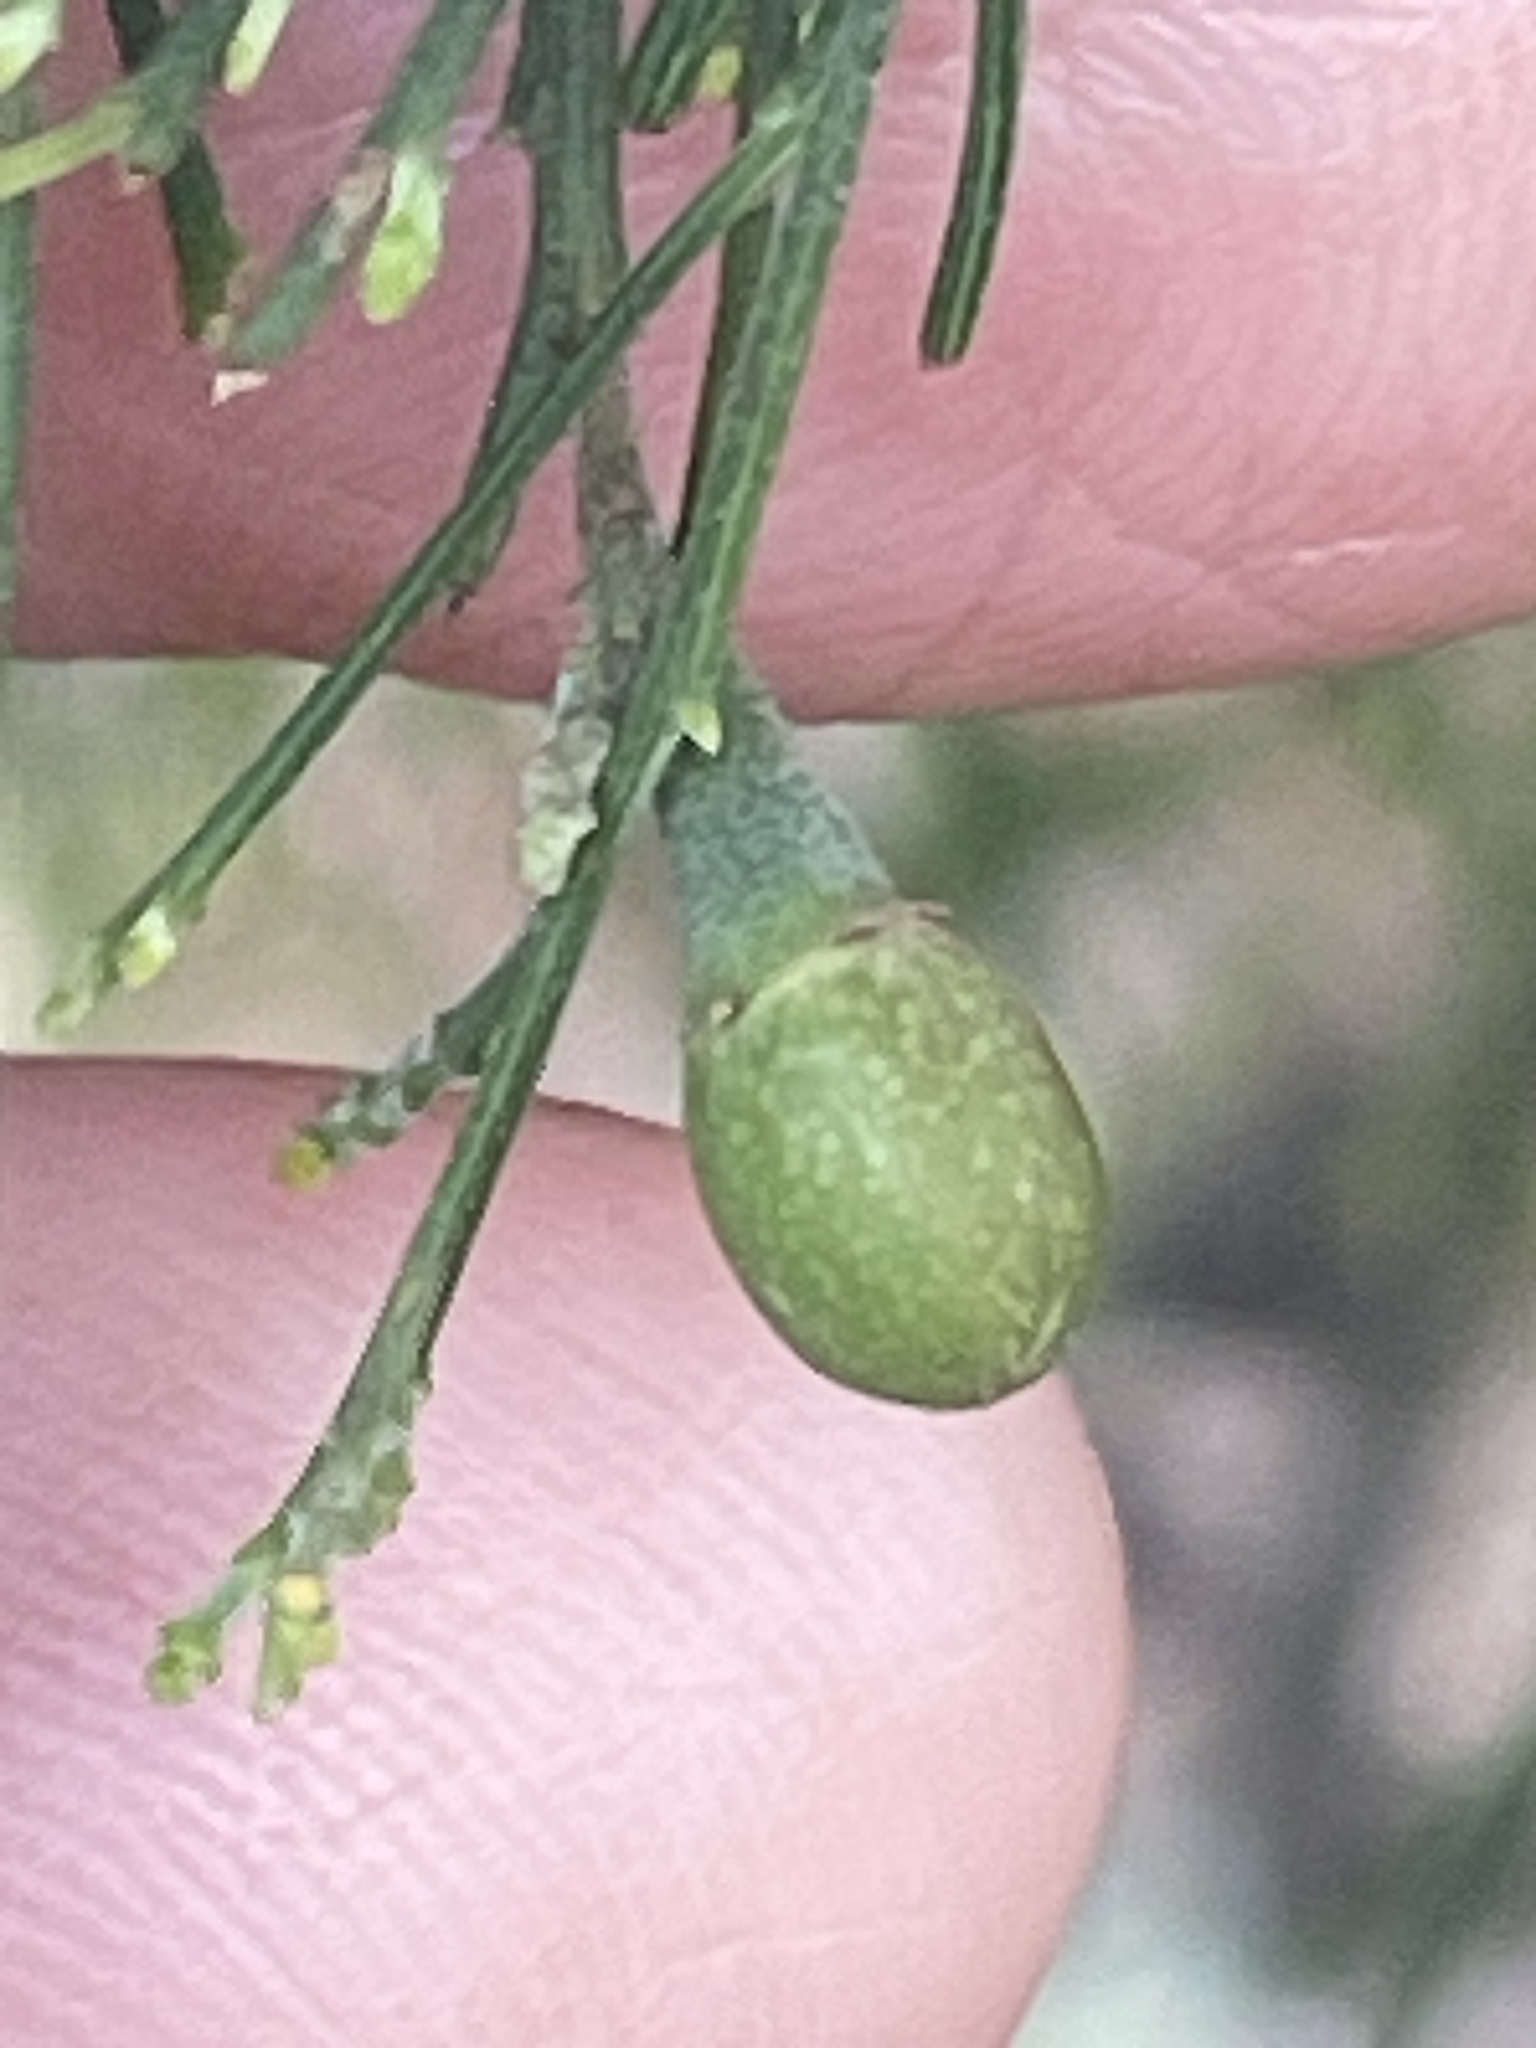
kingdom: Plantae
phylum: Tracheophyta
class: Magnoliopsida
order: Santalales
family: Santalaceae
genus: Exocarpos
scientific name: Exocarpos cupressiformis
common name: Cherry ballart
